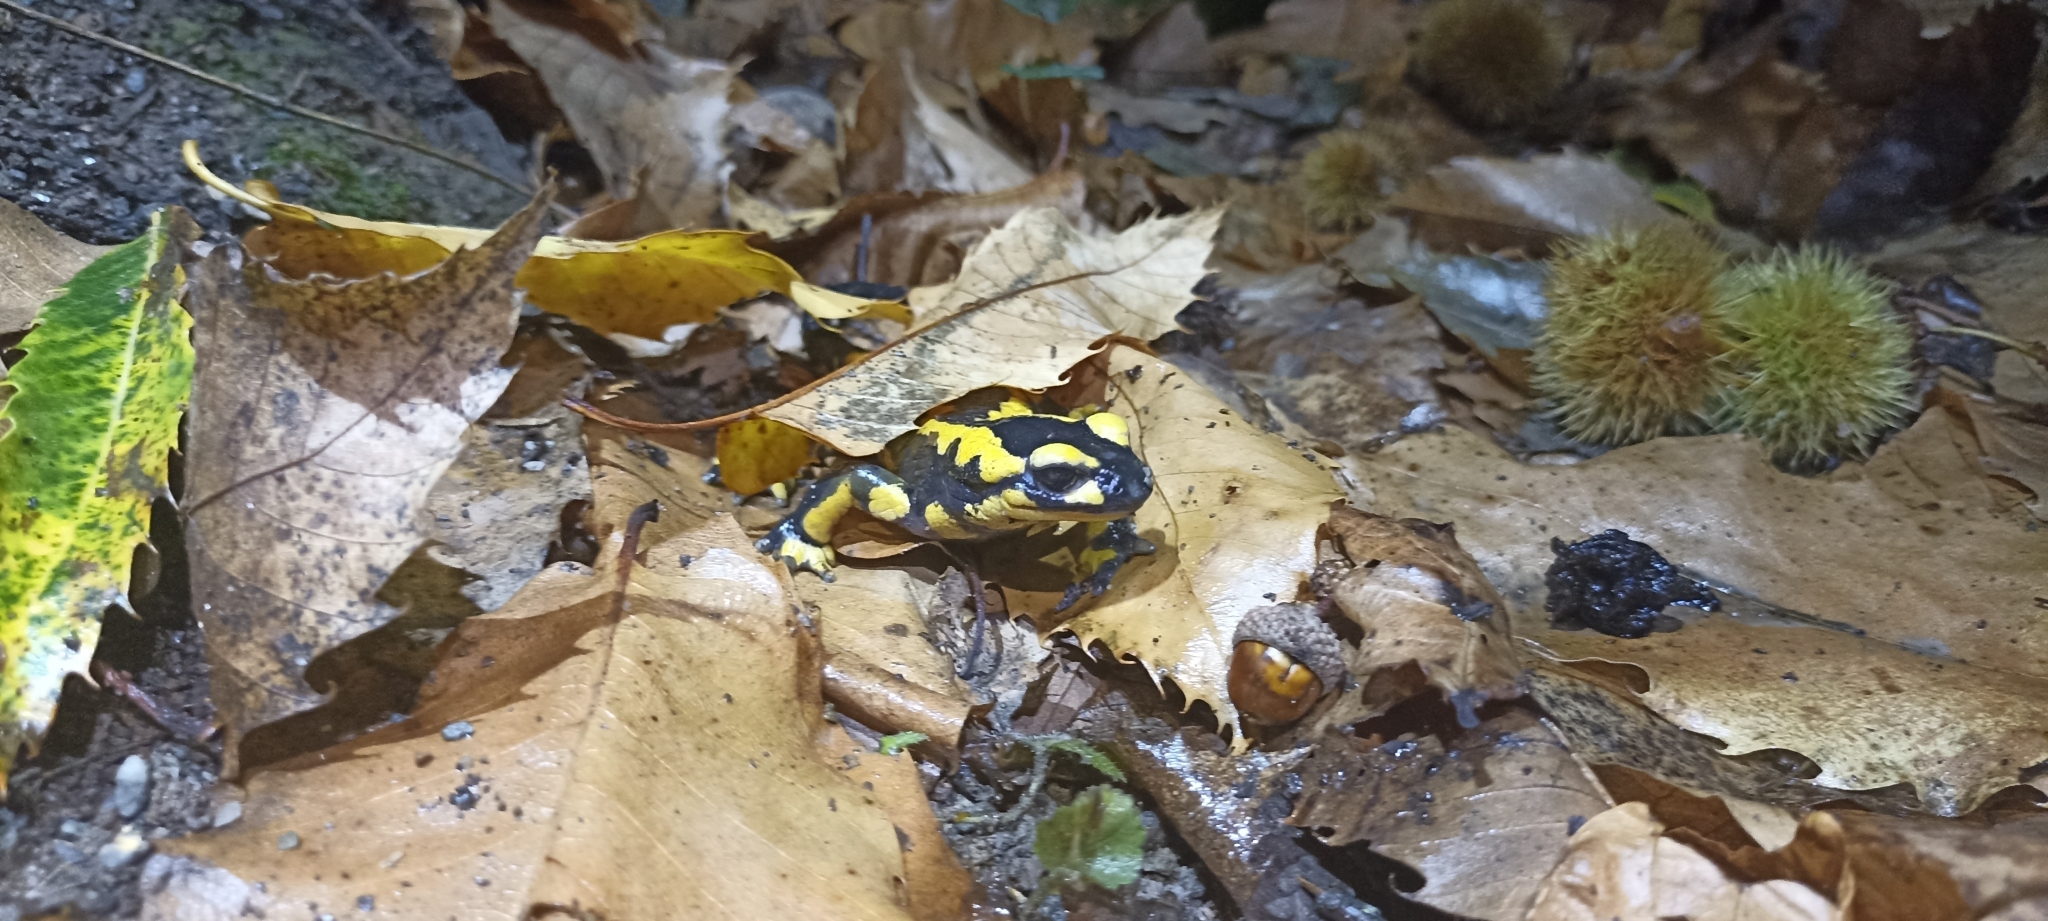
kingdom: Animalia
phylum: Chordata
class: Amphibia
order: Caudata
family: Salamandridae
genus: Salamandra
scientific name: Salamandra salamandra
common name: Fire salamander
